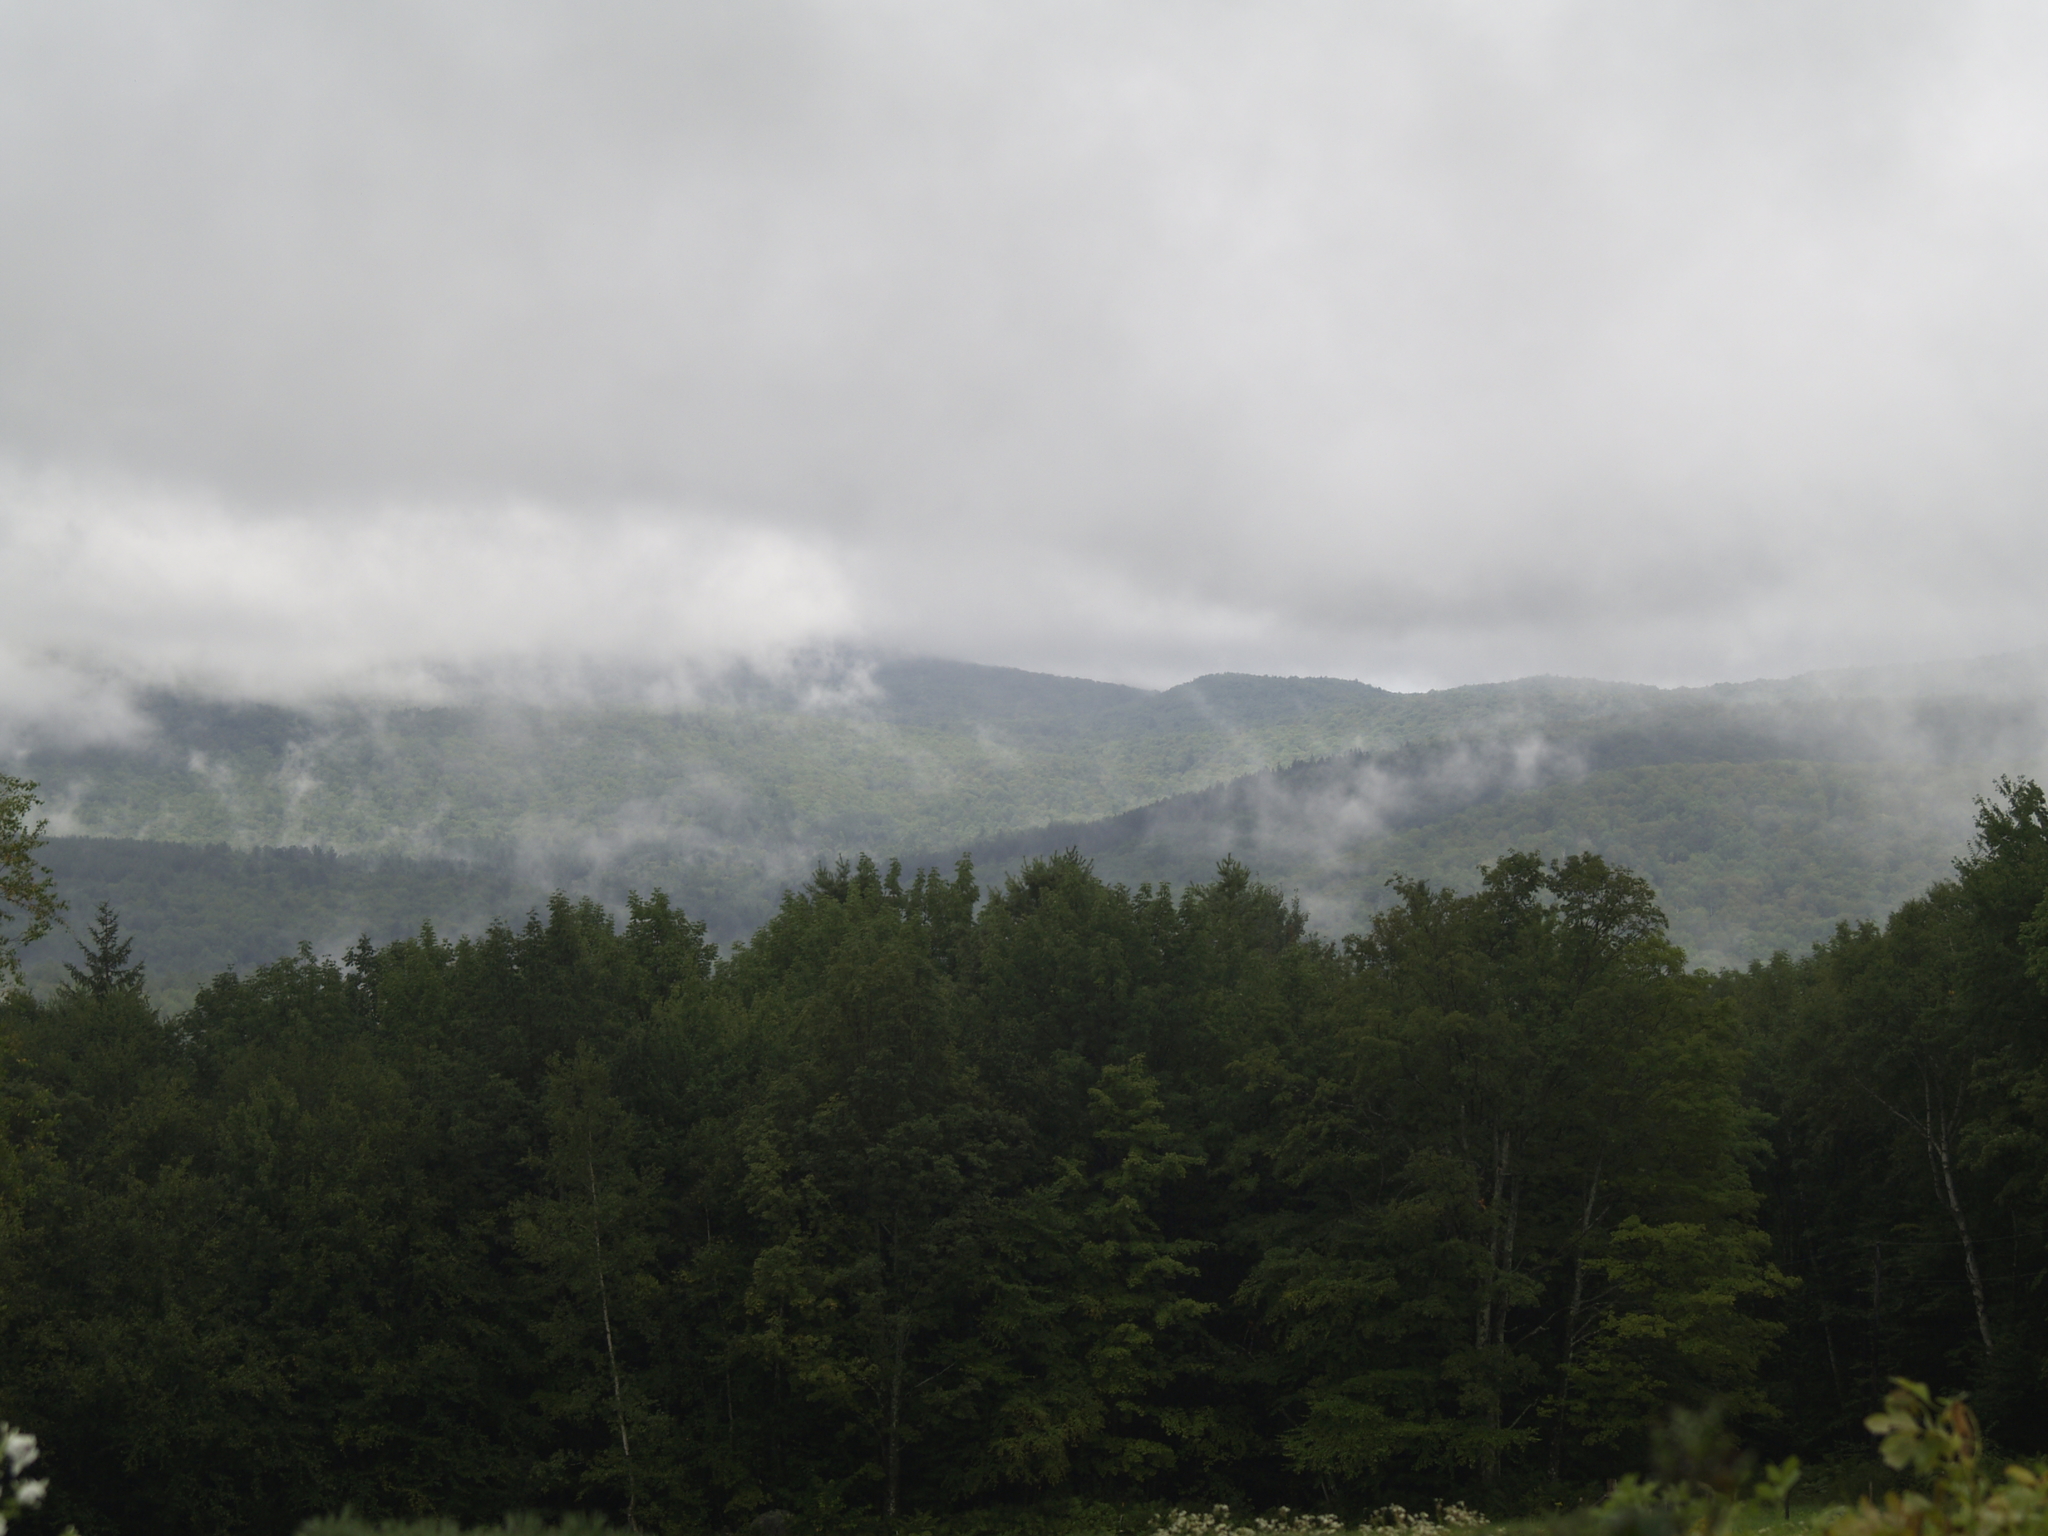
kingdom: Plantae
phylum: Tracheophyta
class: Pinopsida
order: Pinales
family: Pinaceae
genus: Pinus
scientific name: Pinus strobus
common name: Weymouth pine
